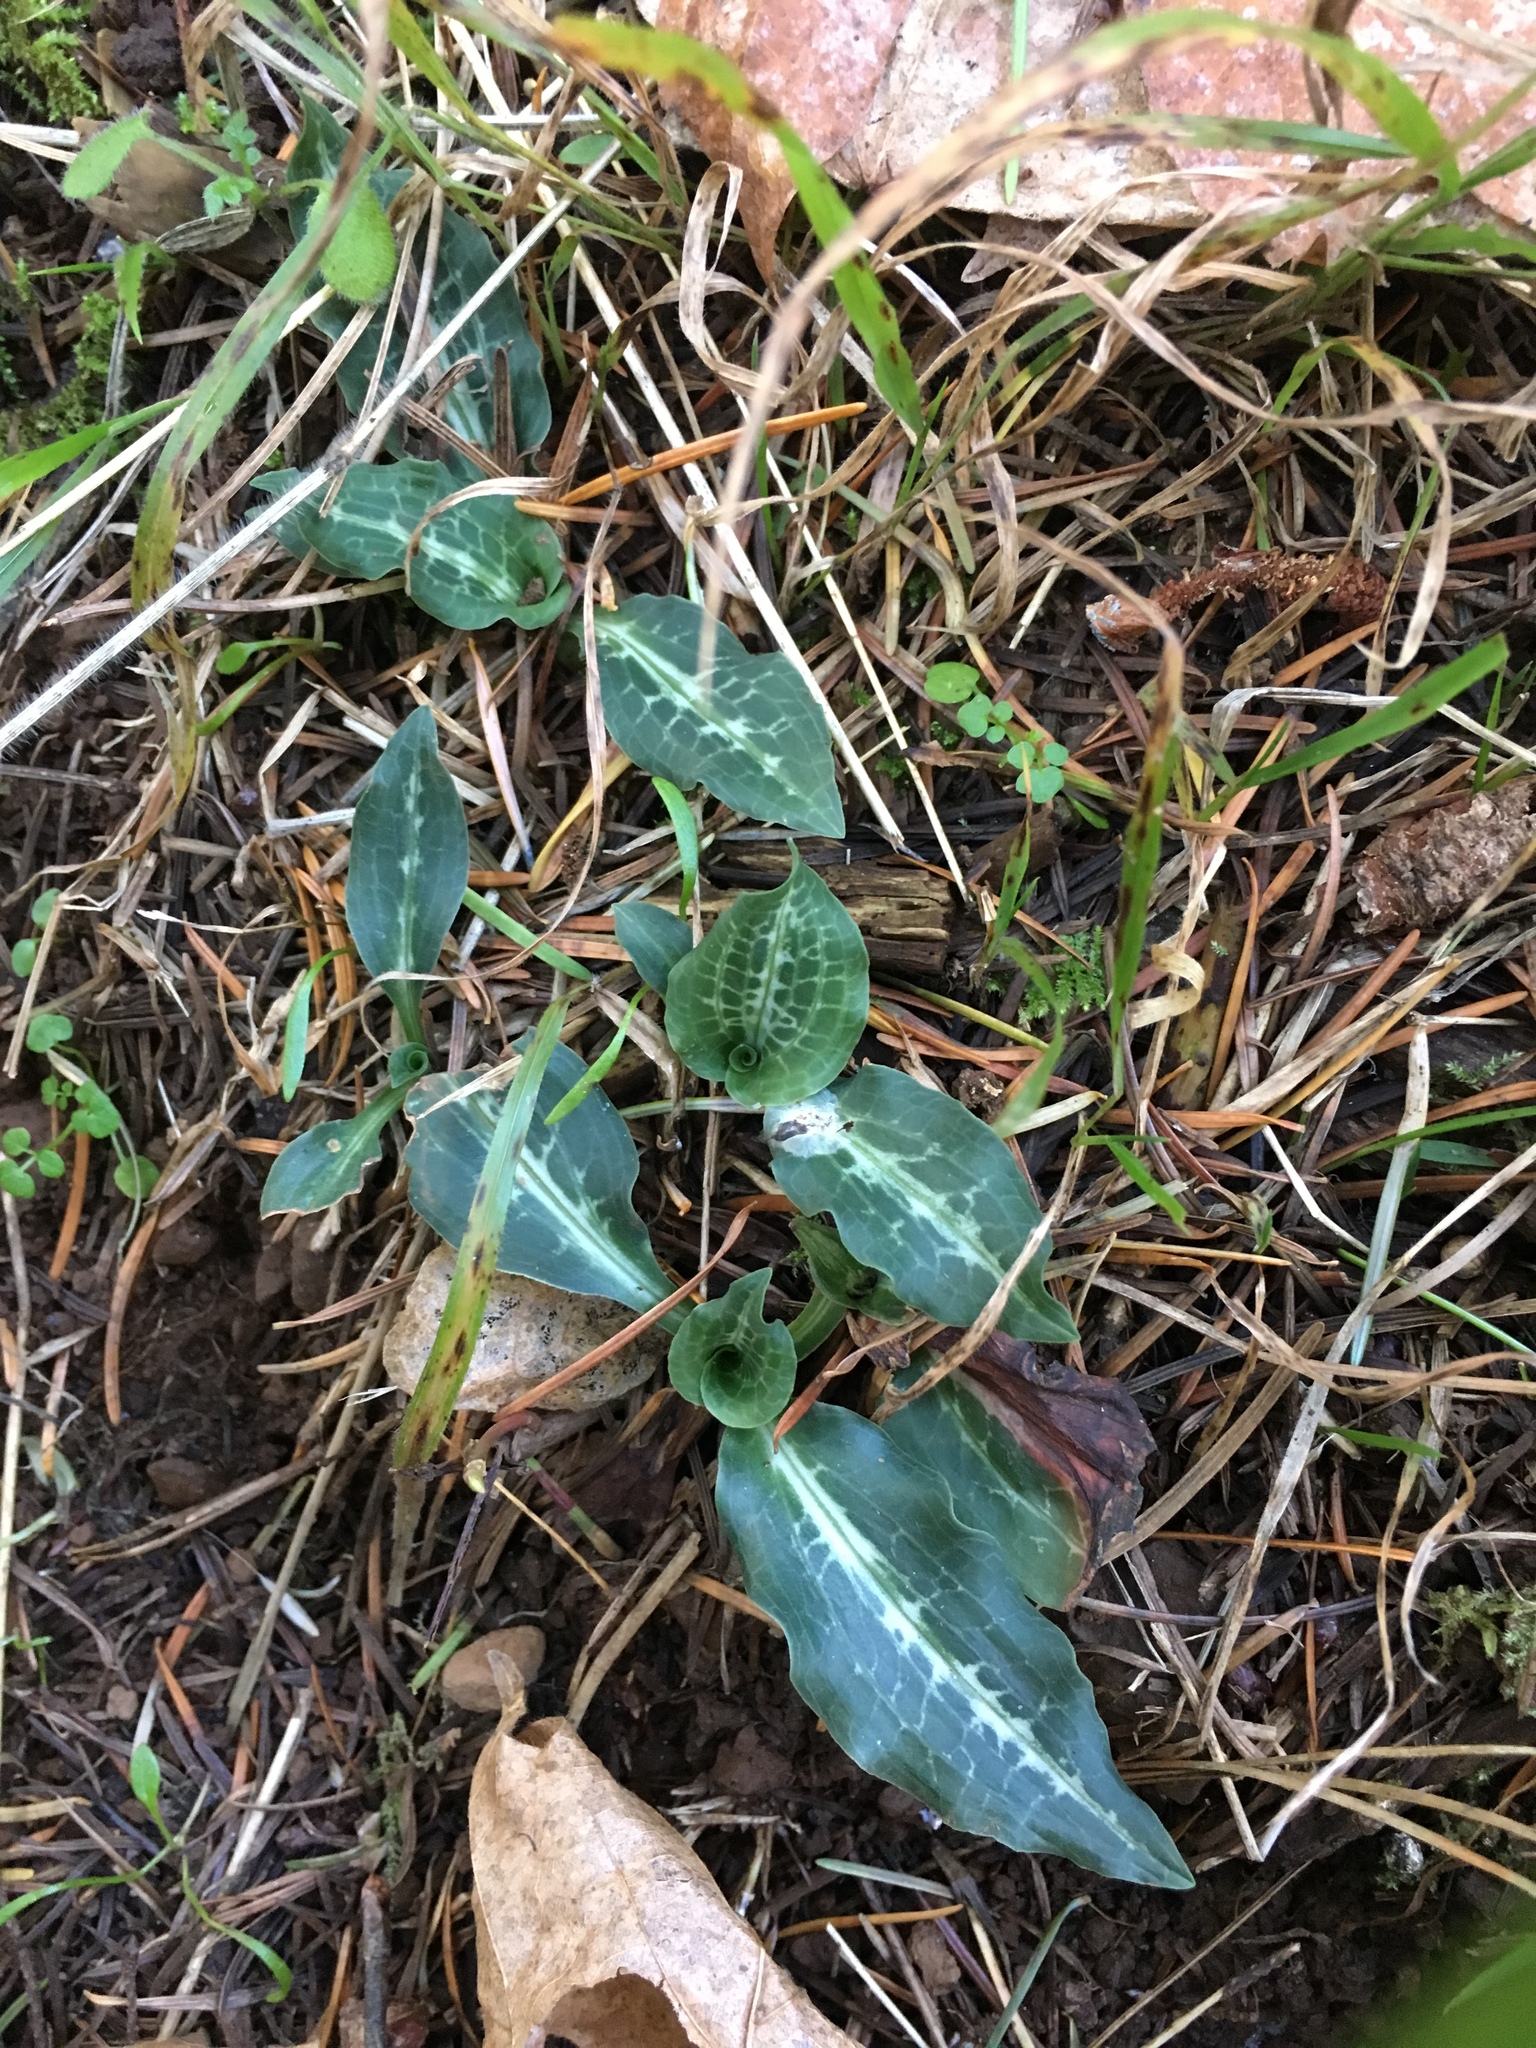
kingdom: Plantae
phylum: Tracheophyta
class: Liliopsida
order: Asparagales
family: Orchidaceae
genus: Goodyera
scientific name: Goodyera oblongifolia
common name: Giant rattlesnake-plantain
